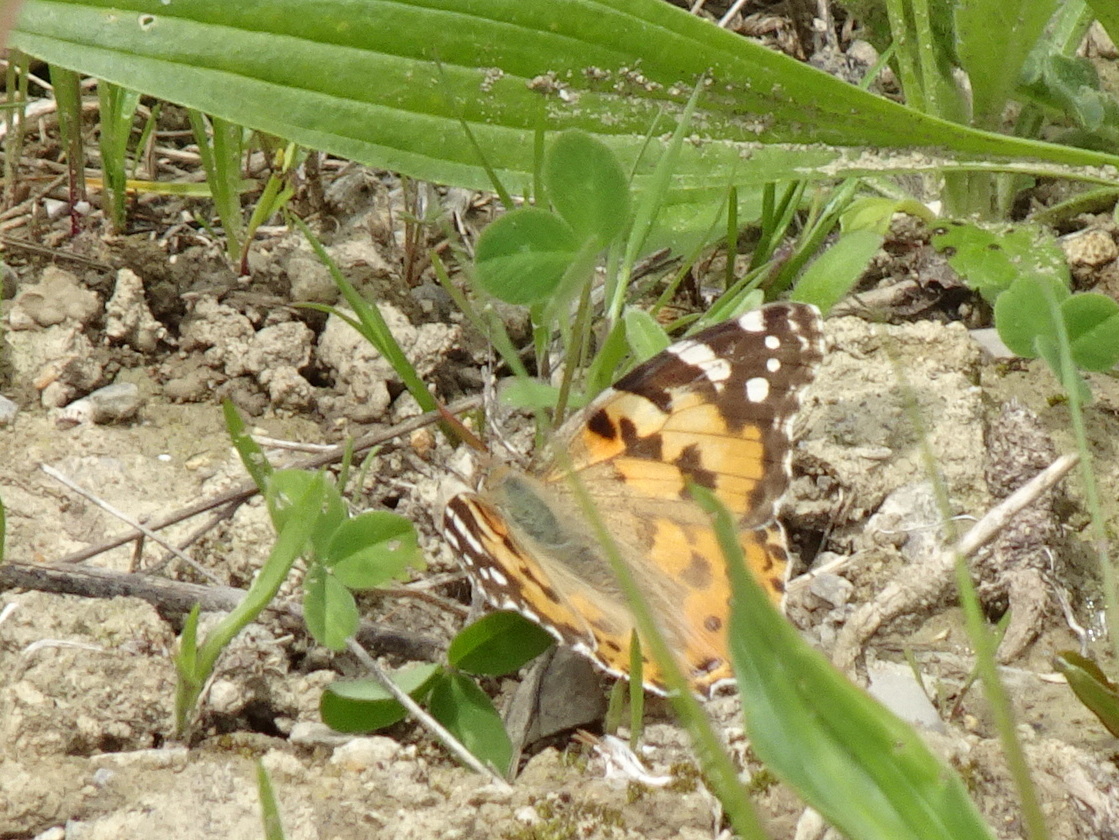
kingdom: Animalia
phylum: Arthropoda
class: Insecta
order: Lepidoptera
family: Nymphalidae
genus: Vanessa
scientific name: Vanessa cardui
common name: Painted lady
